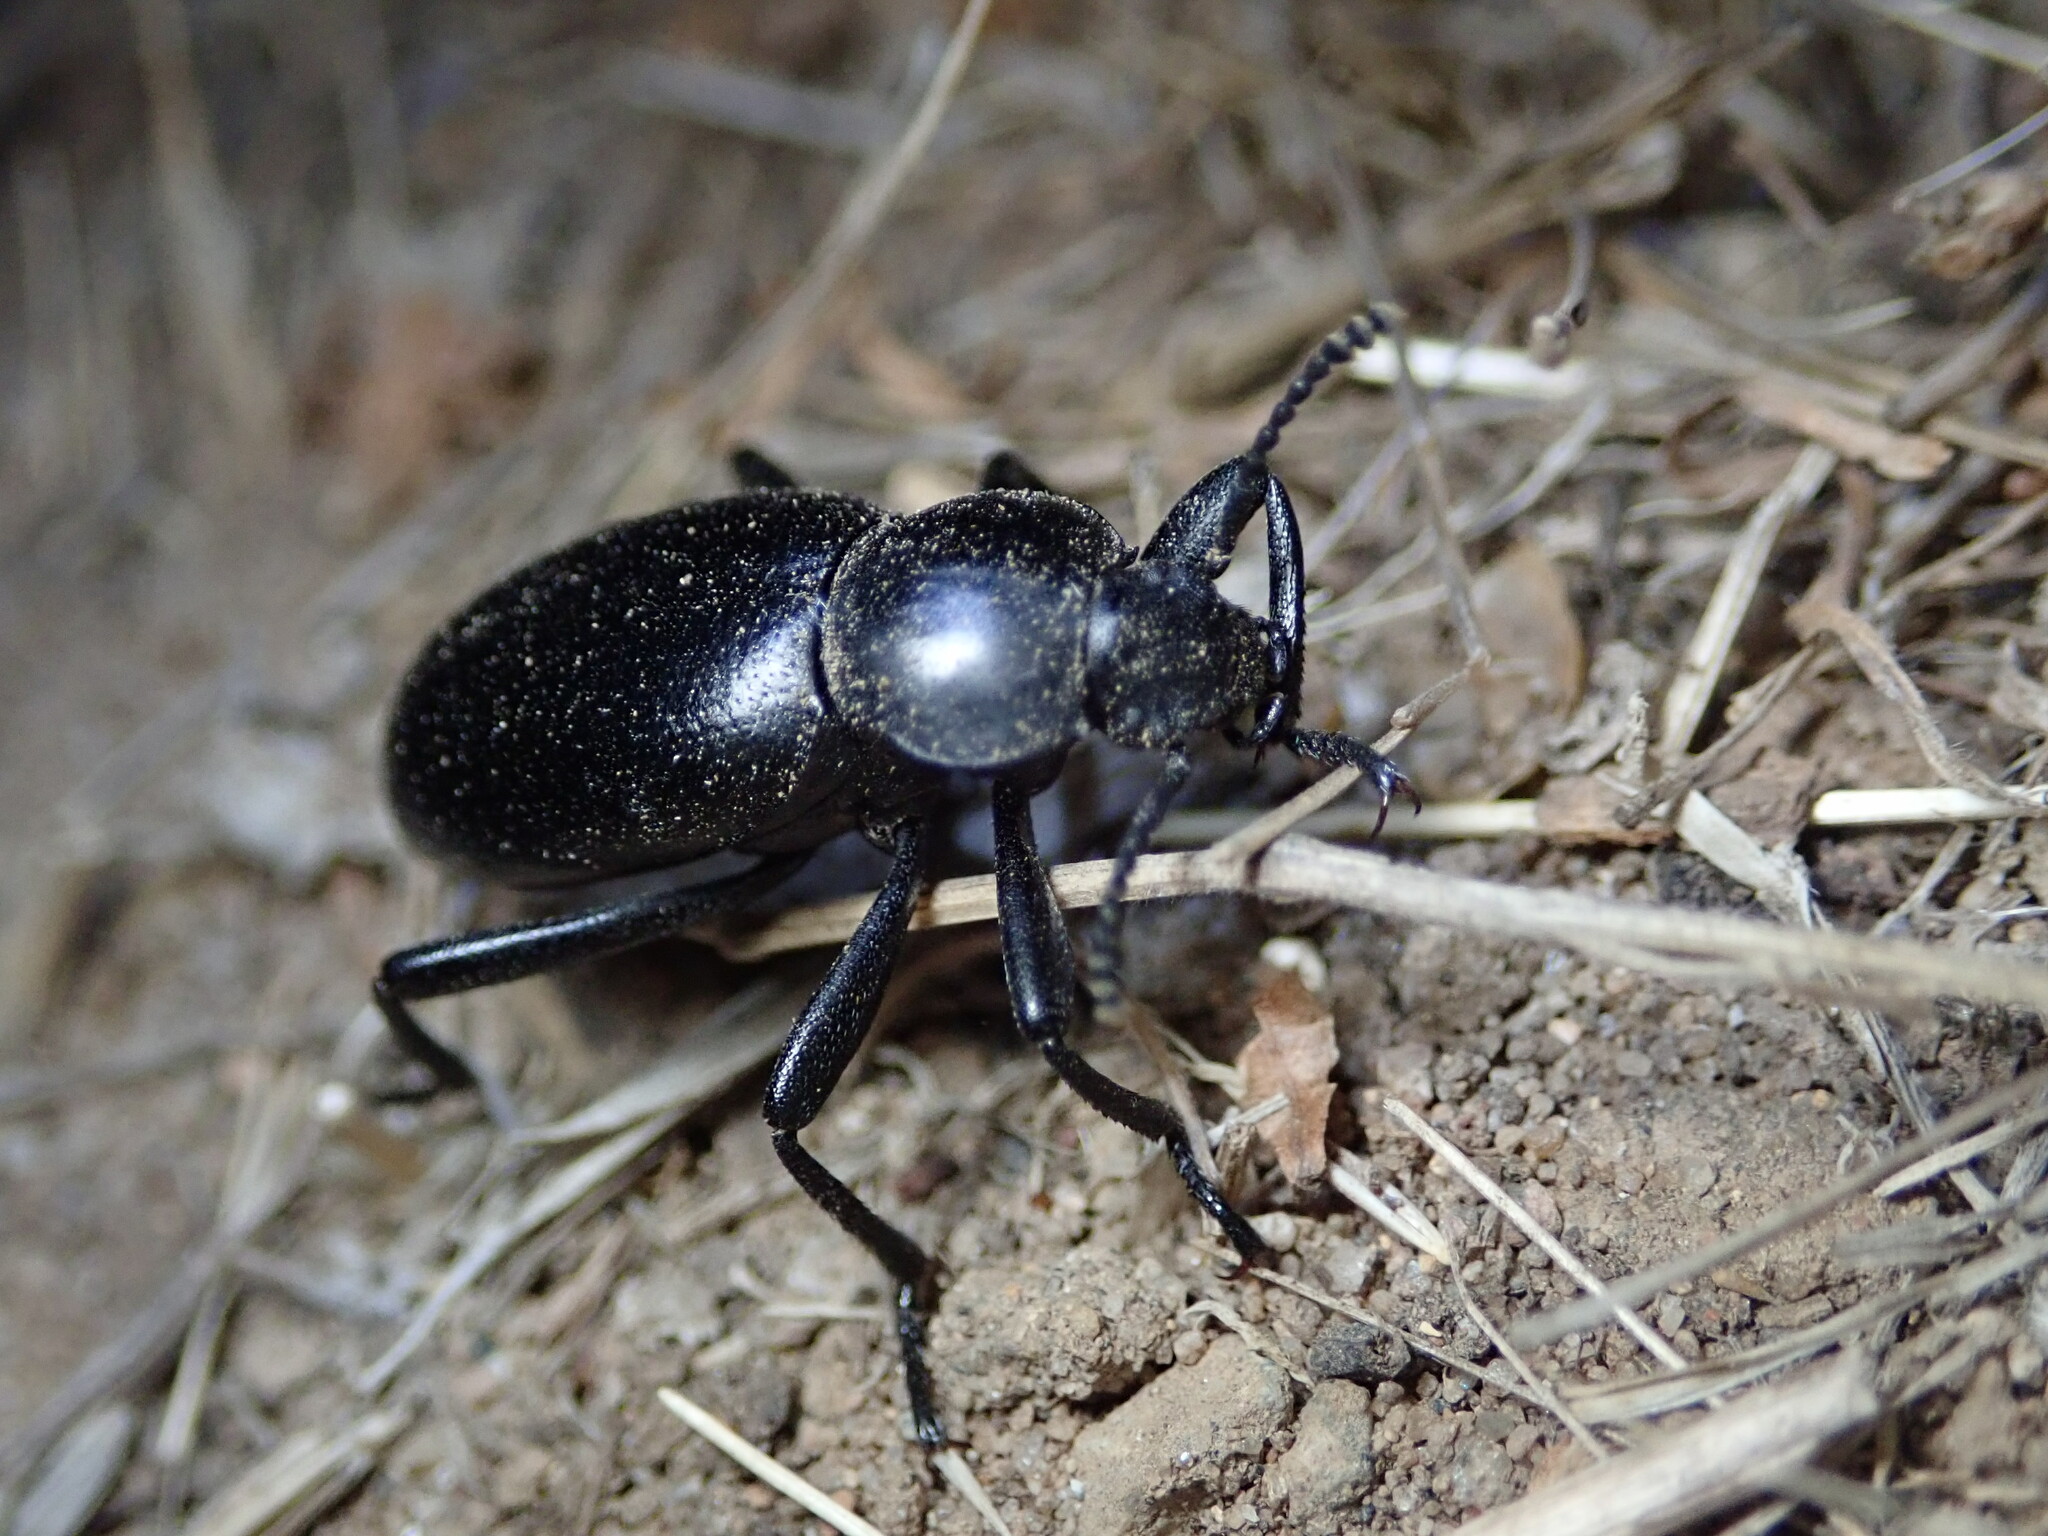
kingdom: Animalia
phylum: Arthropoda
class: Insecta
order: Coleoptera
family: Tenebrionidae
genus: Eleodes
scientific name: Eleodes dentipes
